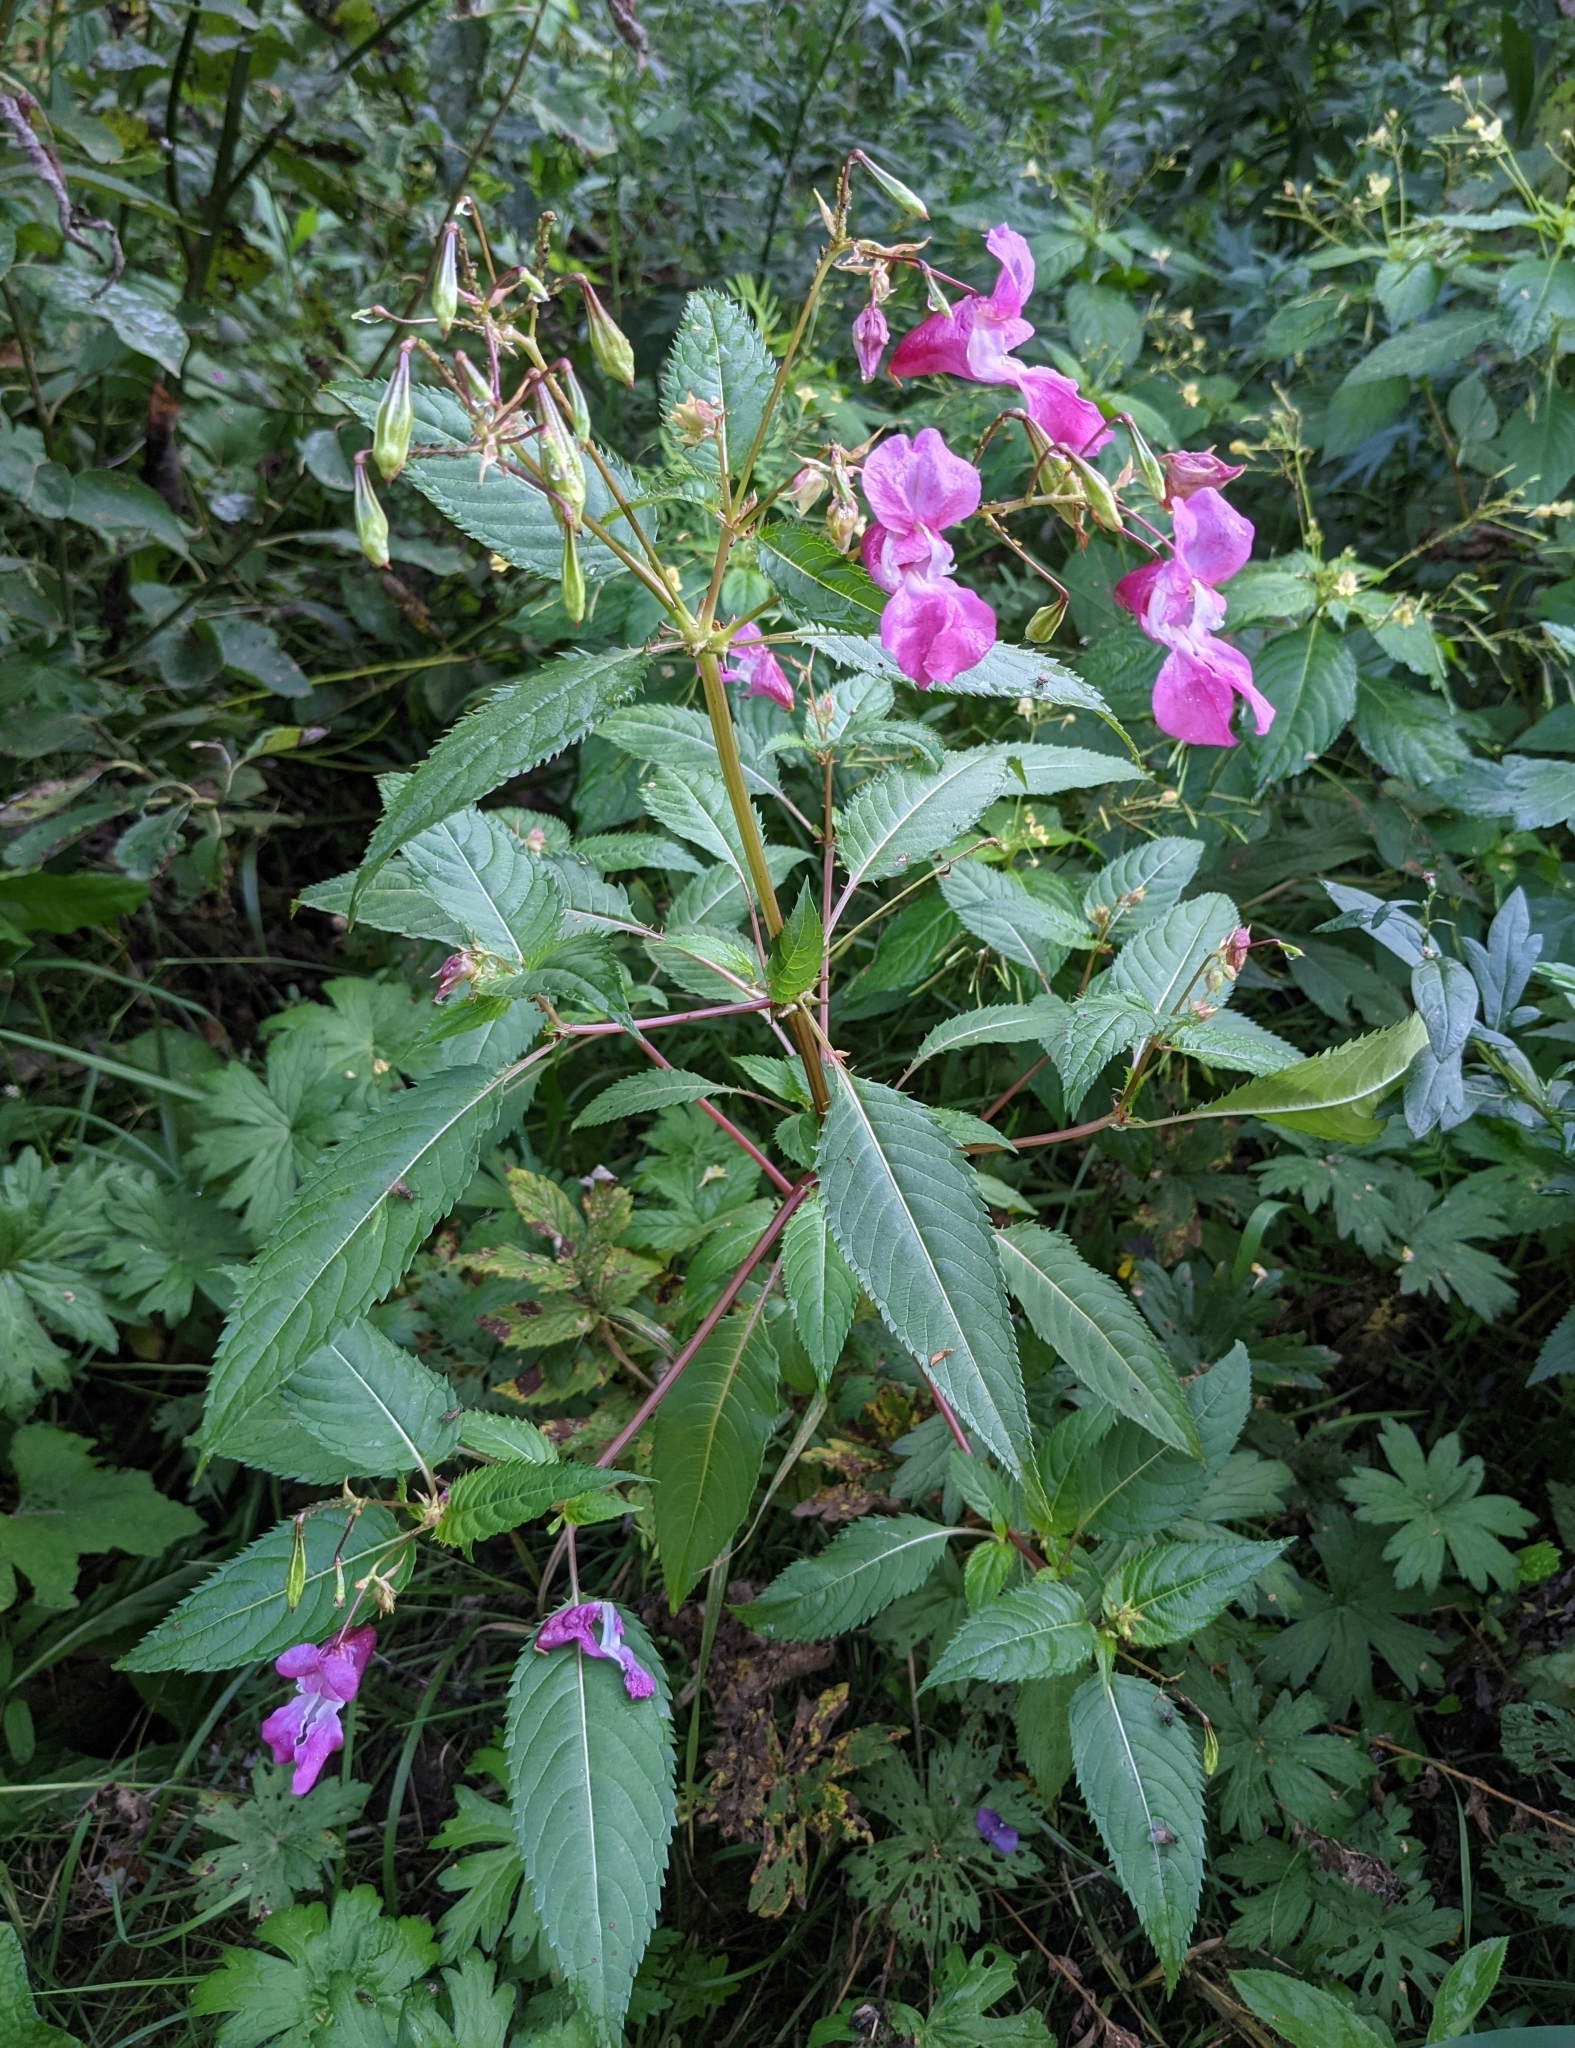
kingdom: Plantae
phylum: Tracheophyta
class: Magnoliopsida
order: Ericales
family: Balsaminaceae
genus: Impatiens
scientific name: Impatiens glandulifera
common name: Himalayan balsam
